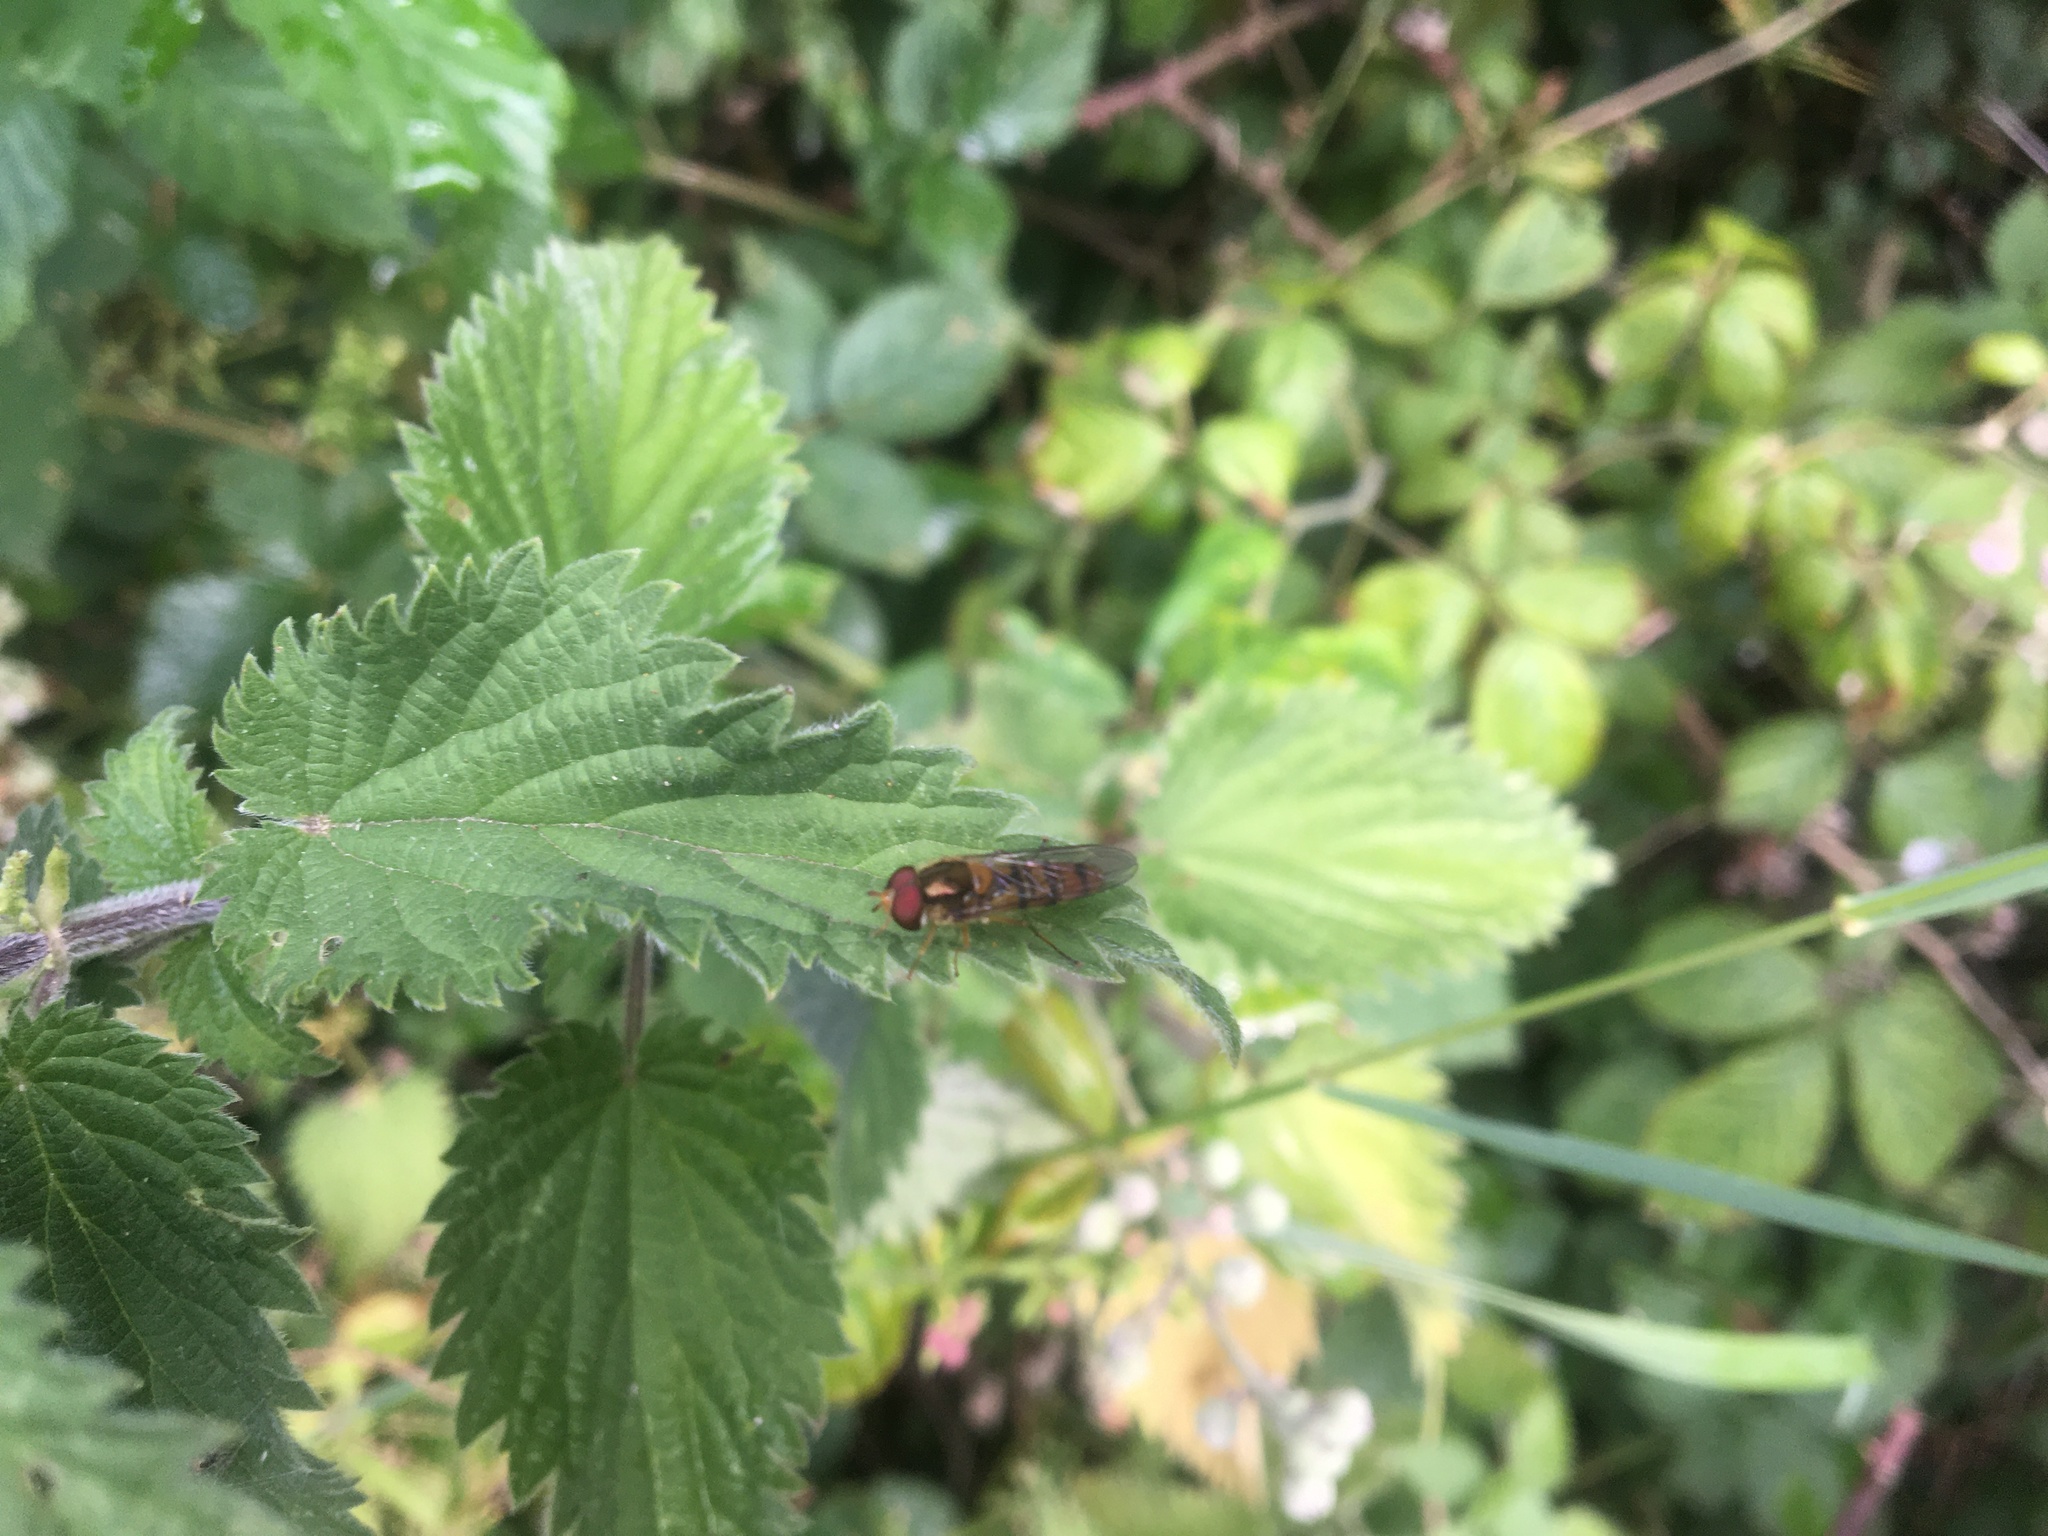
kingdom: Animalia
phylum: Arthropoda
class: Insecta
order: Diptera
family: Syrphidae
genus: Episyrphus
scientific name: Episyrphus balteatus
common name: Marmalade hoverfly
